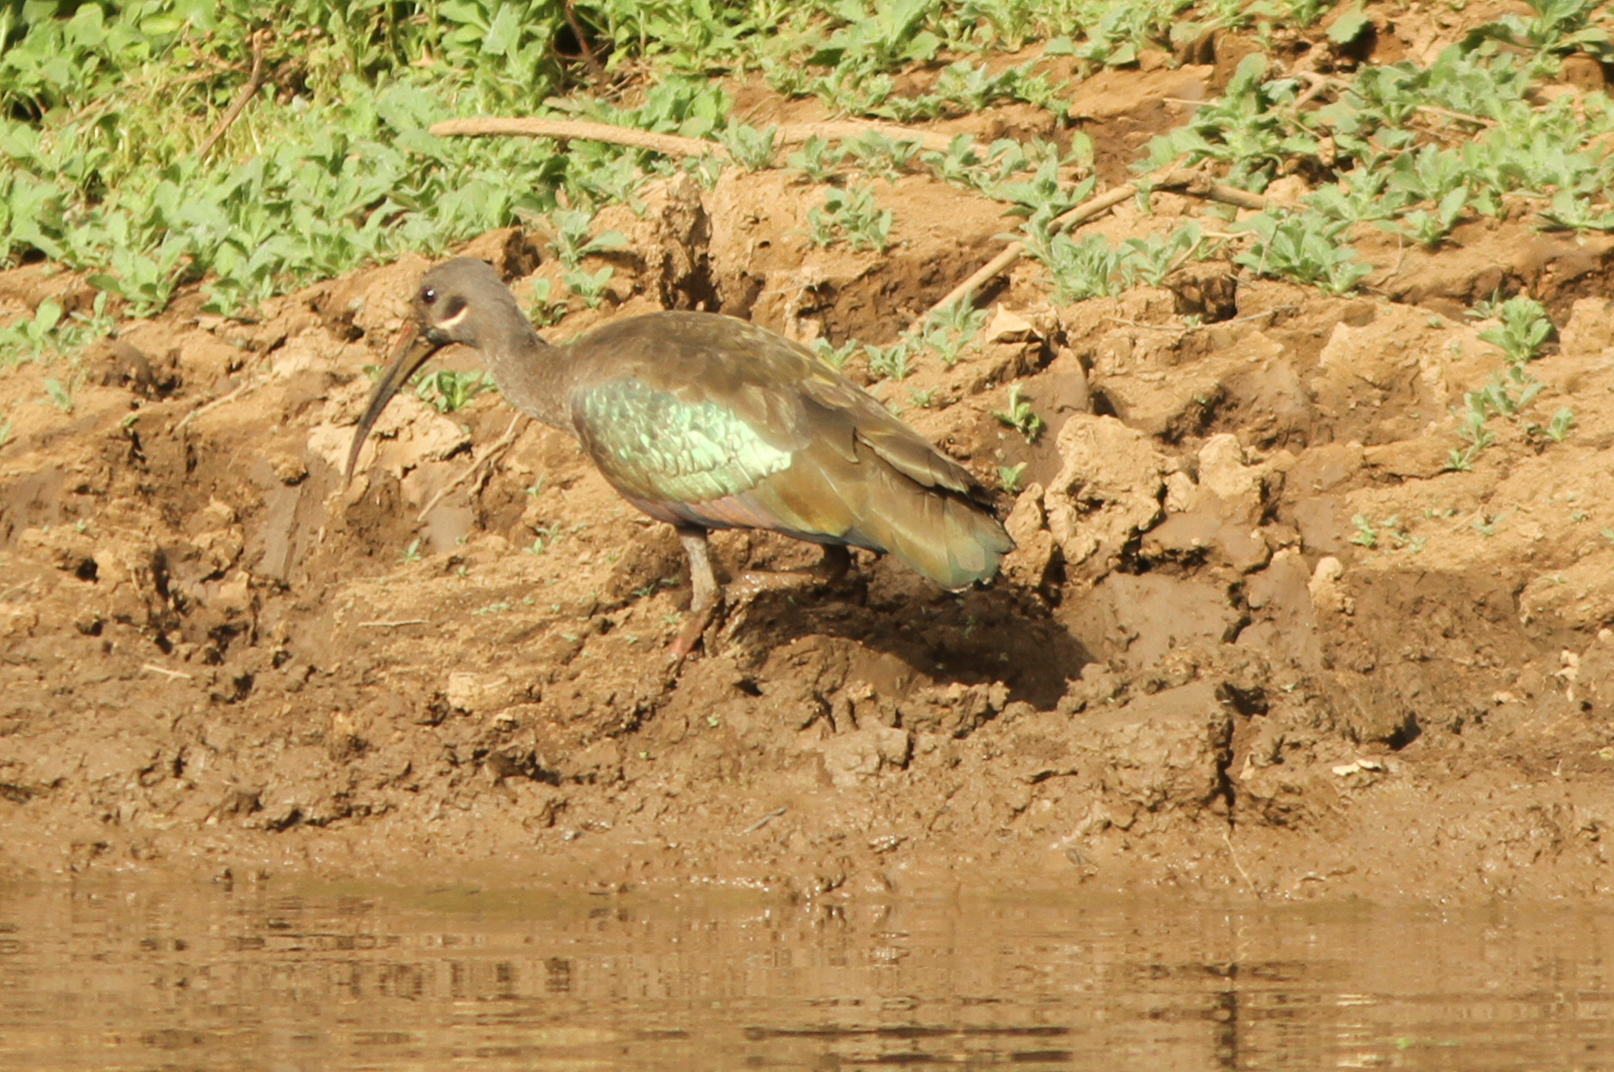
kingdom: Animalia
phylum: Chordata
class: Aves
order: Pelecaniformes
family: Threskiornithidae
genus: Bostrychia
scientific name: Bostrychia hagedash
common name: Hadada ibis
